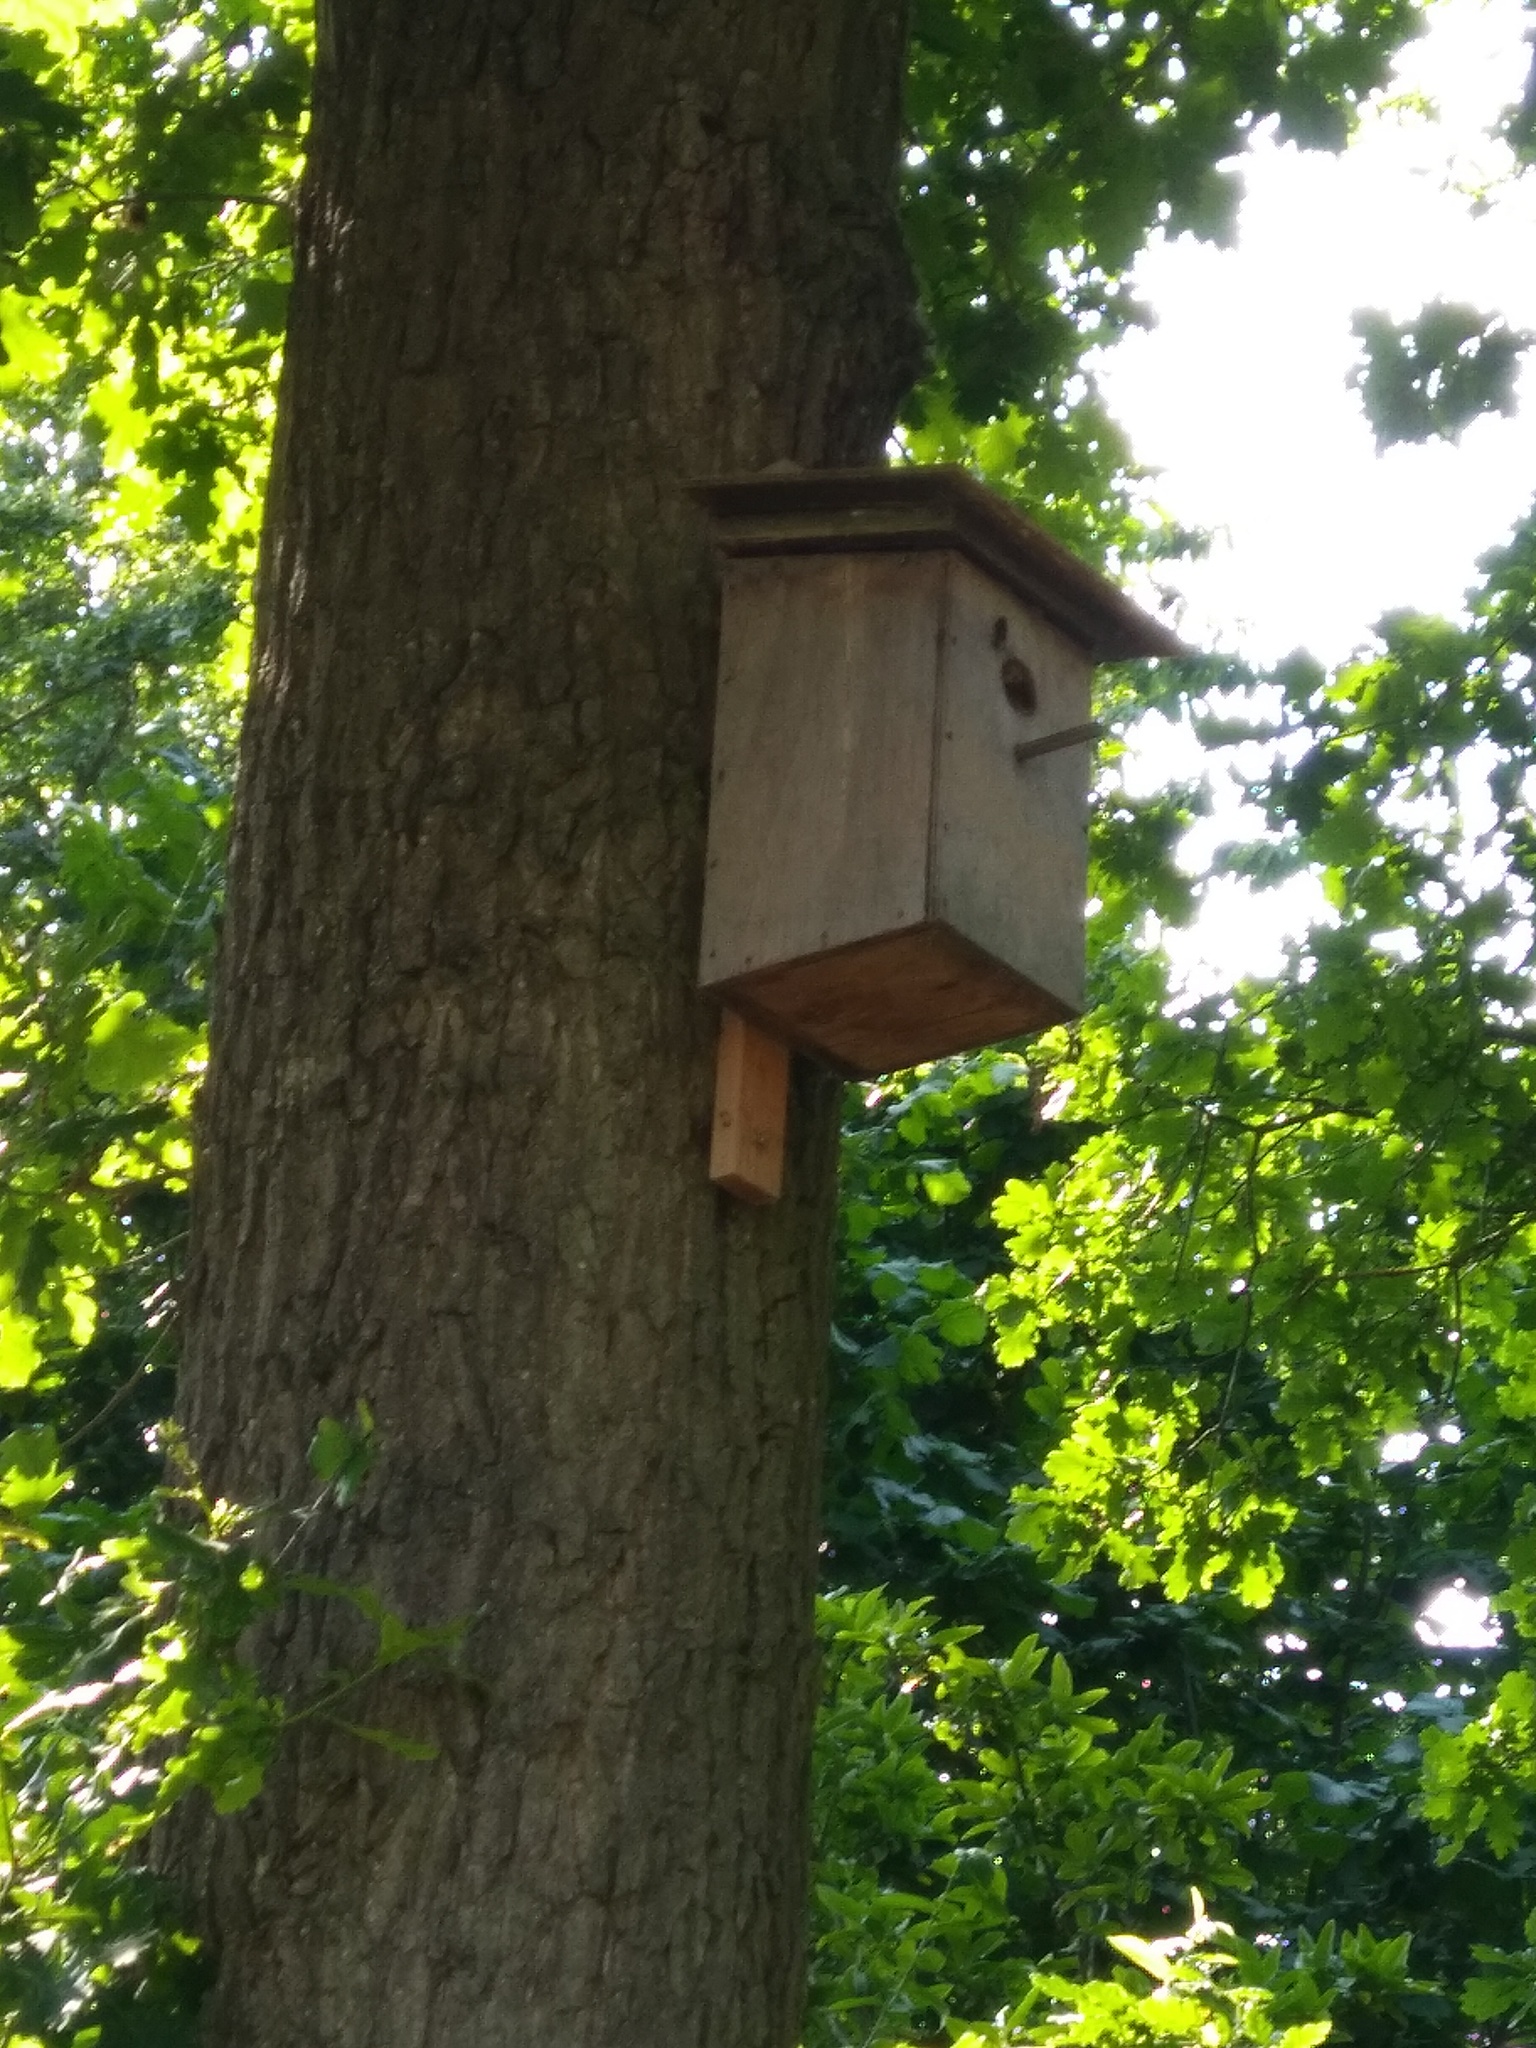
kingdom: Animalia
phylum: Arthropoda
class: Insecta
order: Hymenoptera
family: Vespidae
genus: Vespa
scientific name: Vespa velutina
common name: Asian hornet
